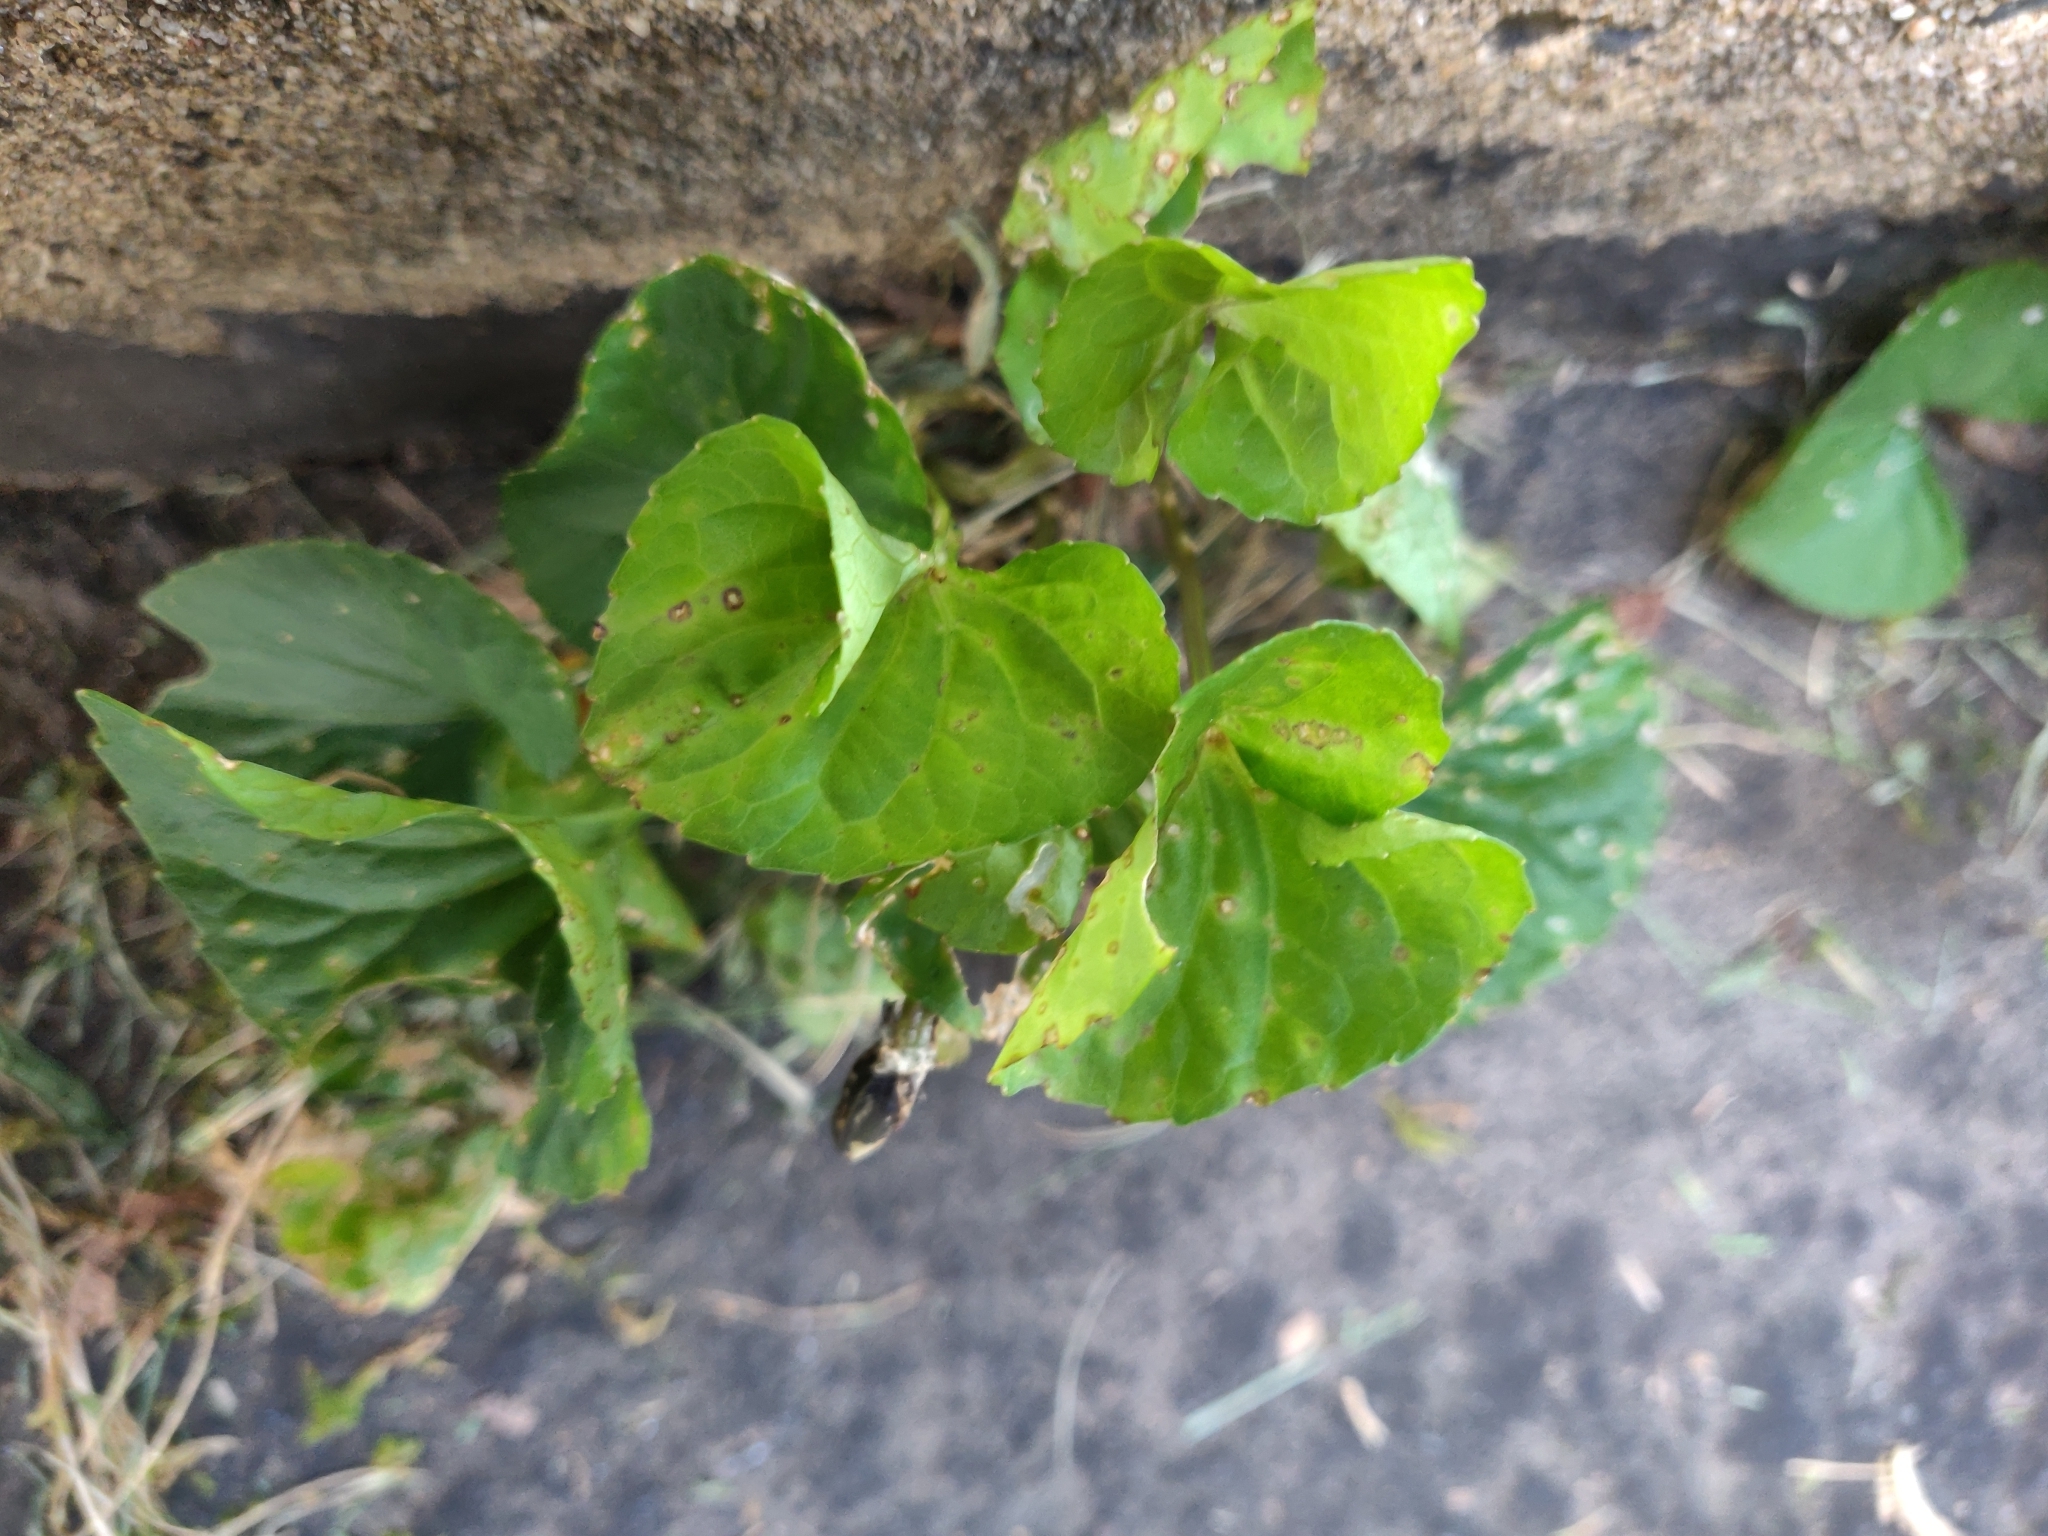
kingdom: Plantae
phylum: Tracheophyta
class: Magnoliopsida
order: Malpighiales
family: Violaceae
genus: Viola
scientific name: Viola sororia
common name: Dooryard violet
